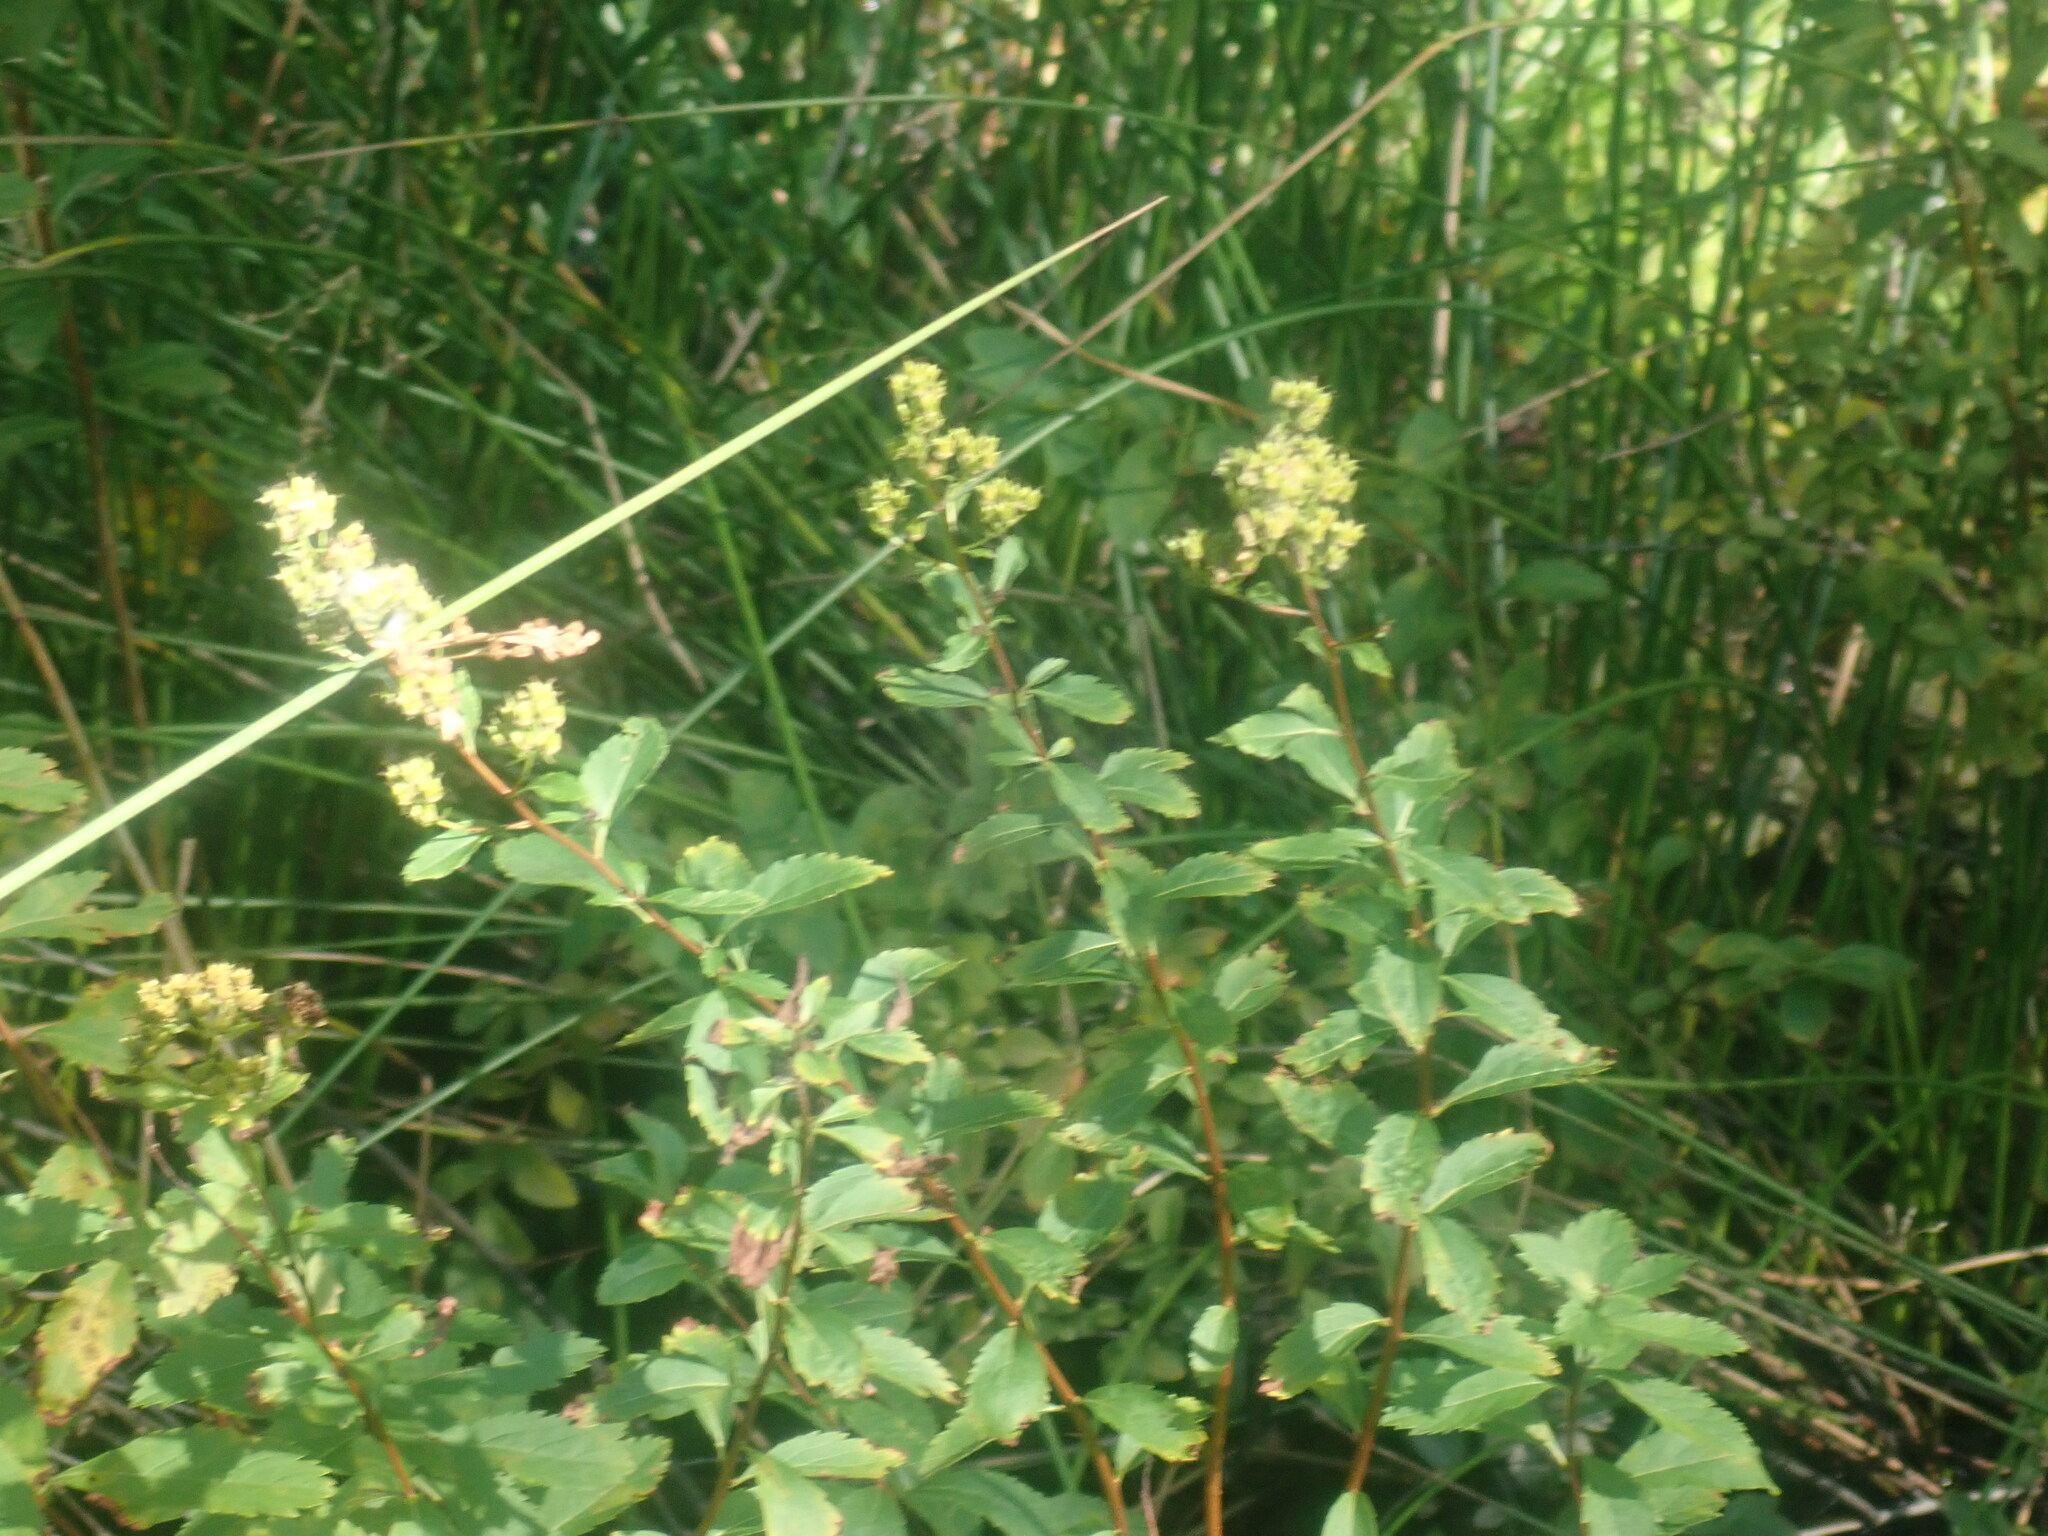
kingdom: Plantae
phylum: Tracheophyta
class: Magnoliopsida
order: Rosales
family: Rosaceae
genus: Spiraea
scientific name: Spiraea alba
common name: Pale bridewort
